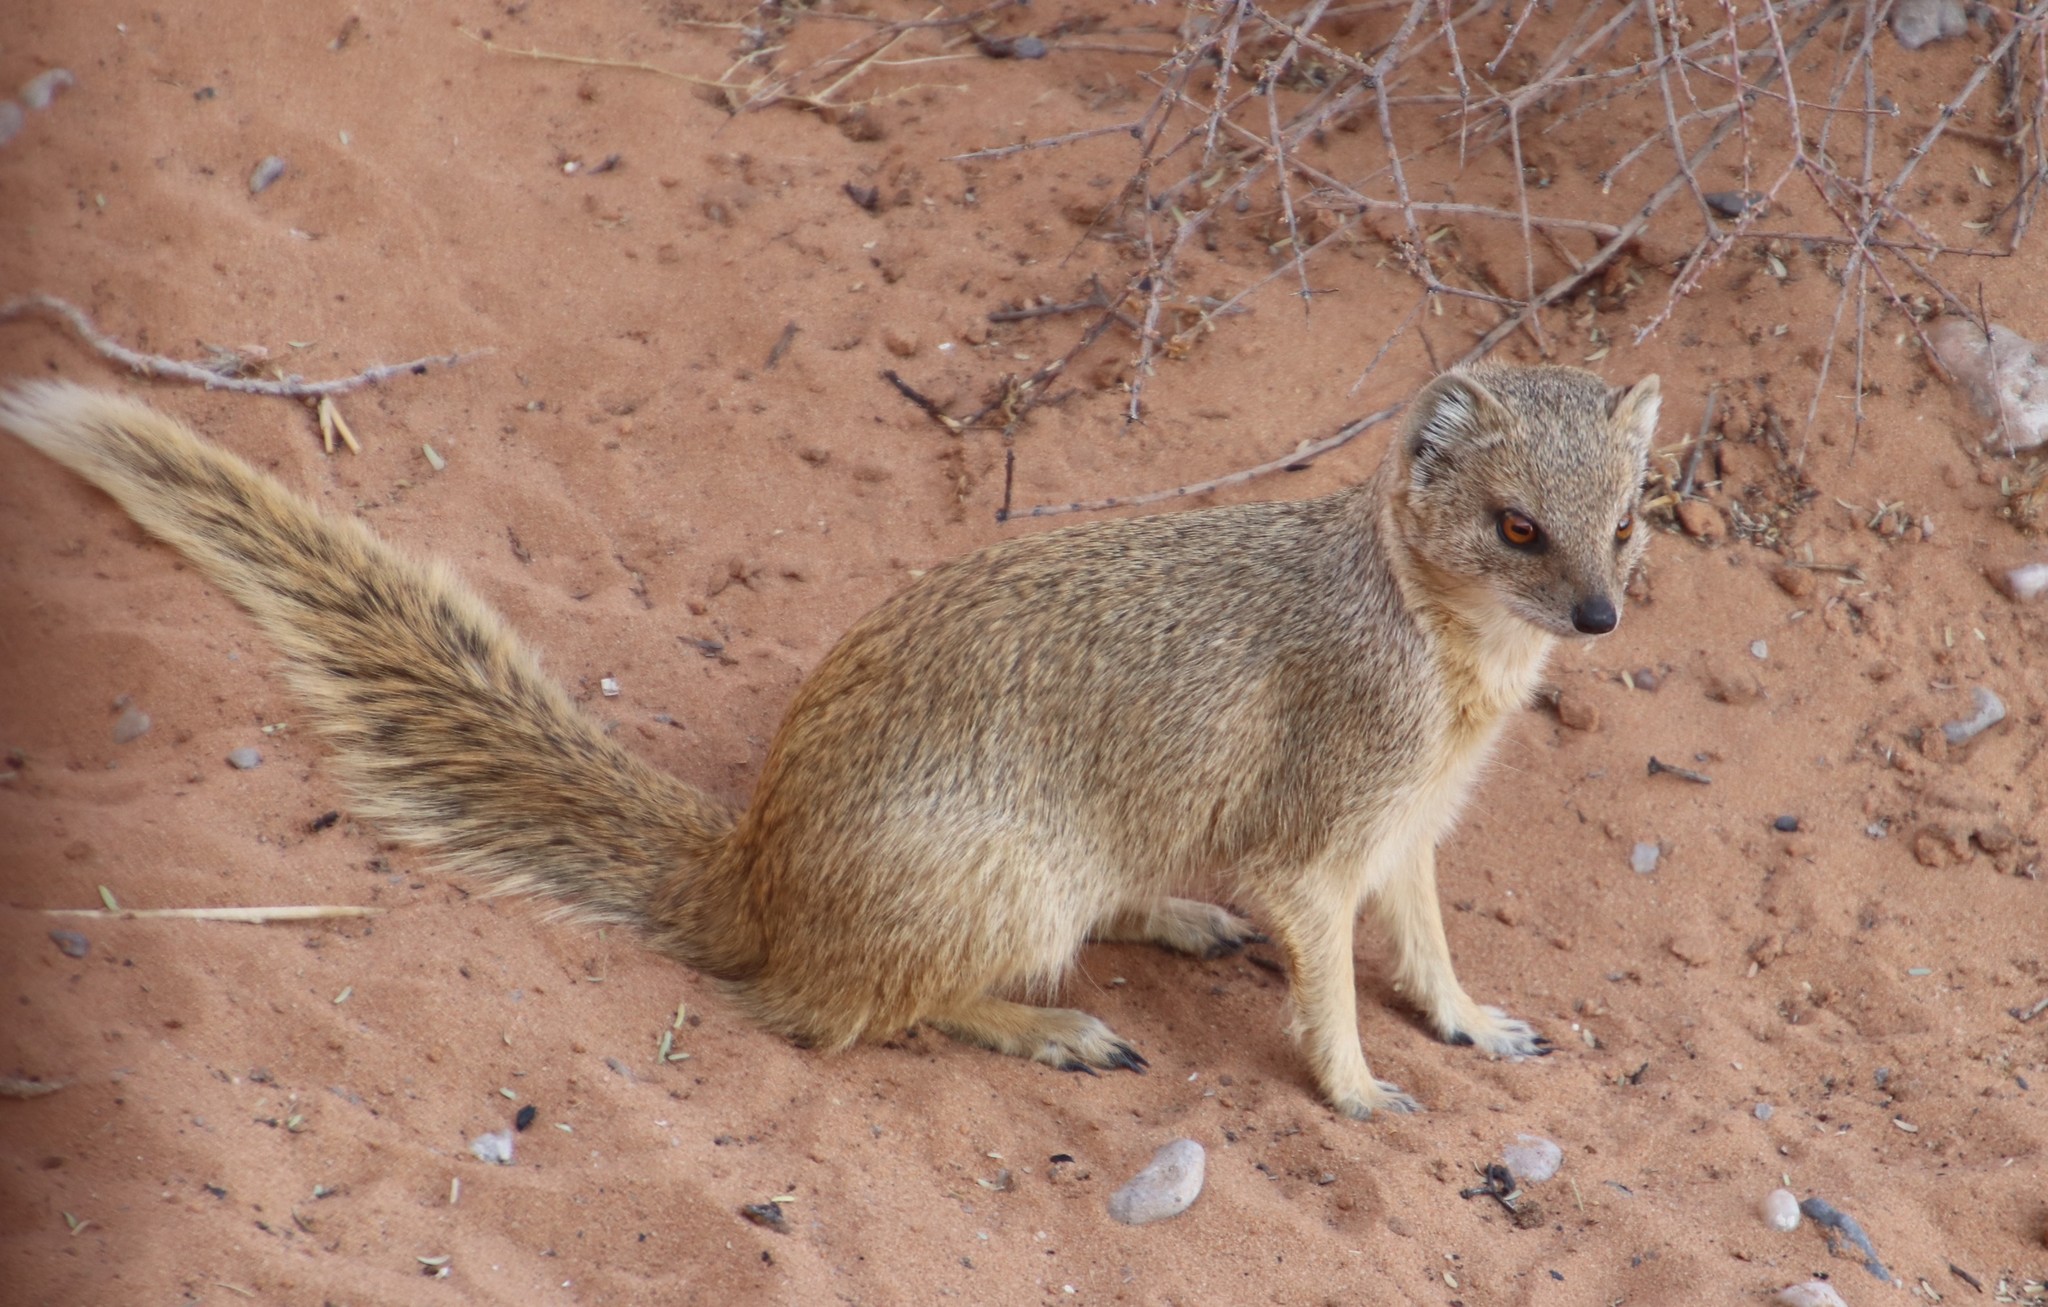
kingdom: Animalia
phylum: Chordata
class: Mammalia
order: Carnivora
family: Herpestidae
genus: Cynictis
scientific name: Cynictis penicillata
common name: Yellow mongoose
